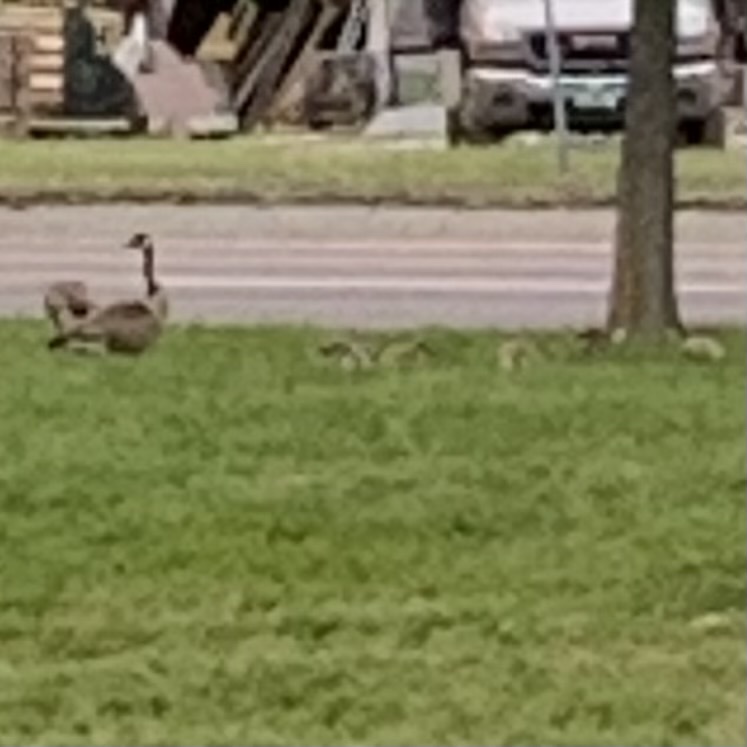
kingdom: Animalia
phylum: Chordata
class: Aves
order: Anseriformes
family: Anatidae
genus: Branta
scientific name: Branta canadensis
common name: Canada goose
